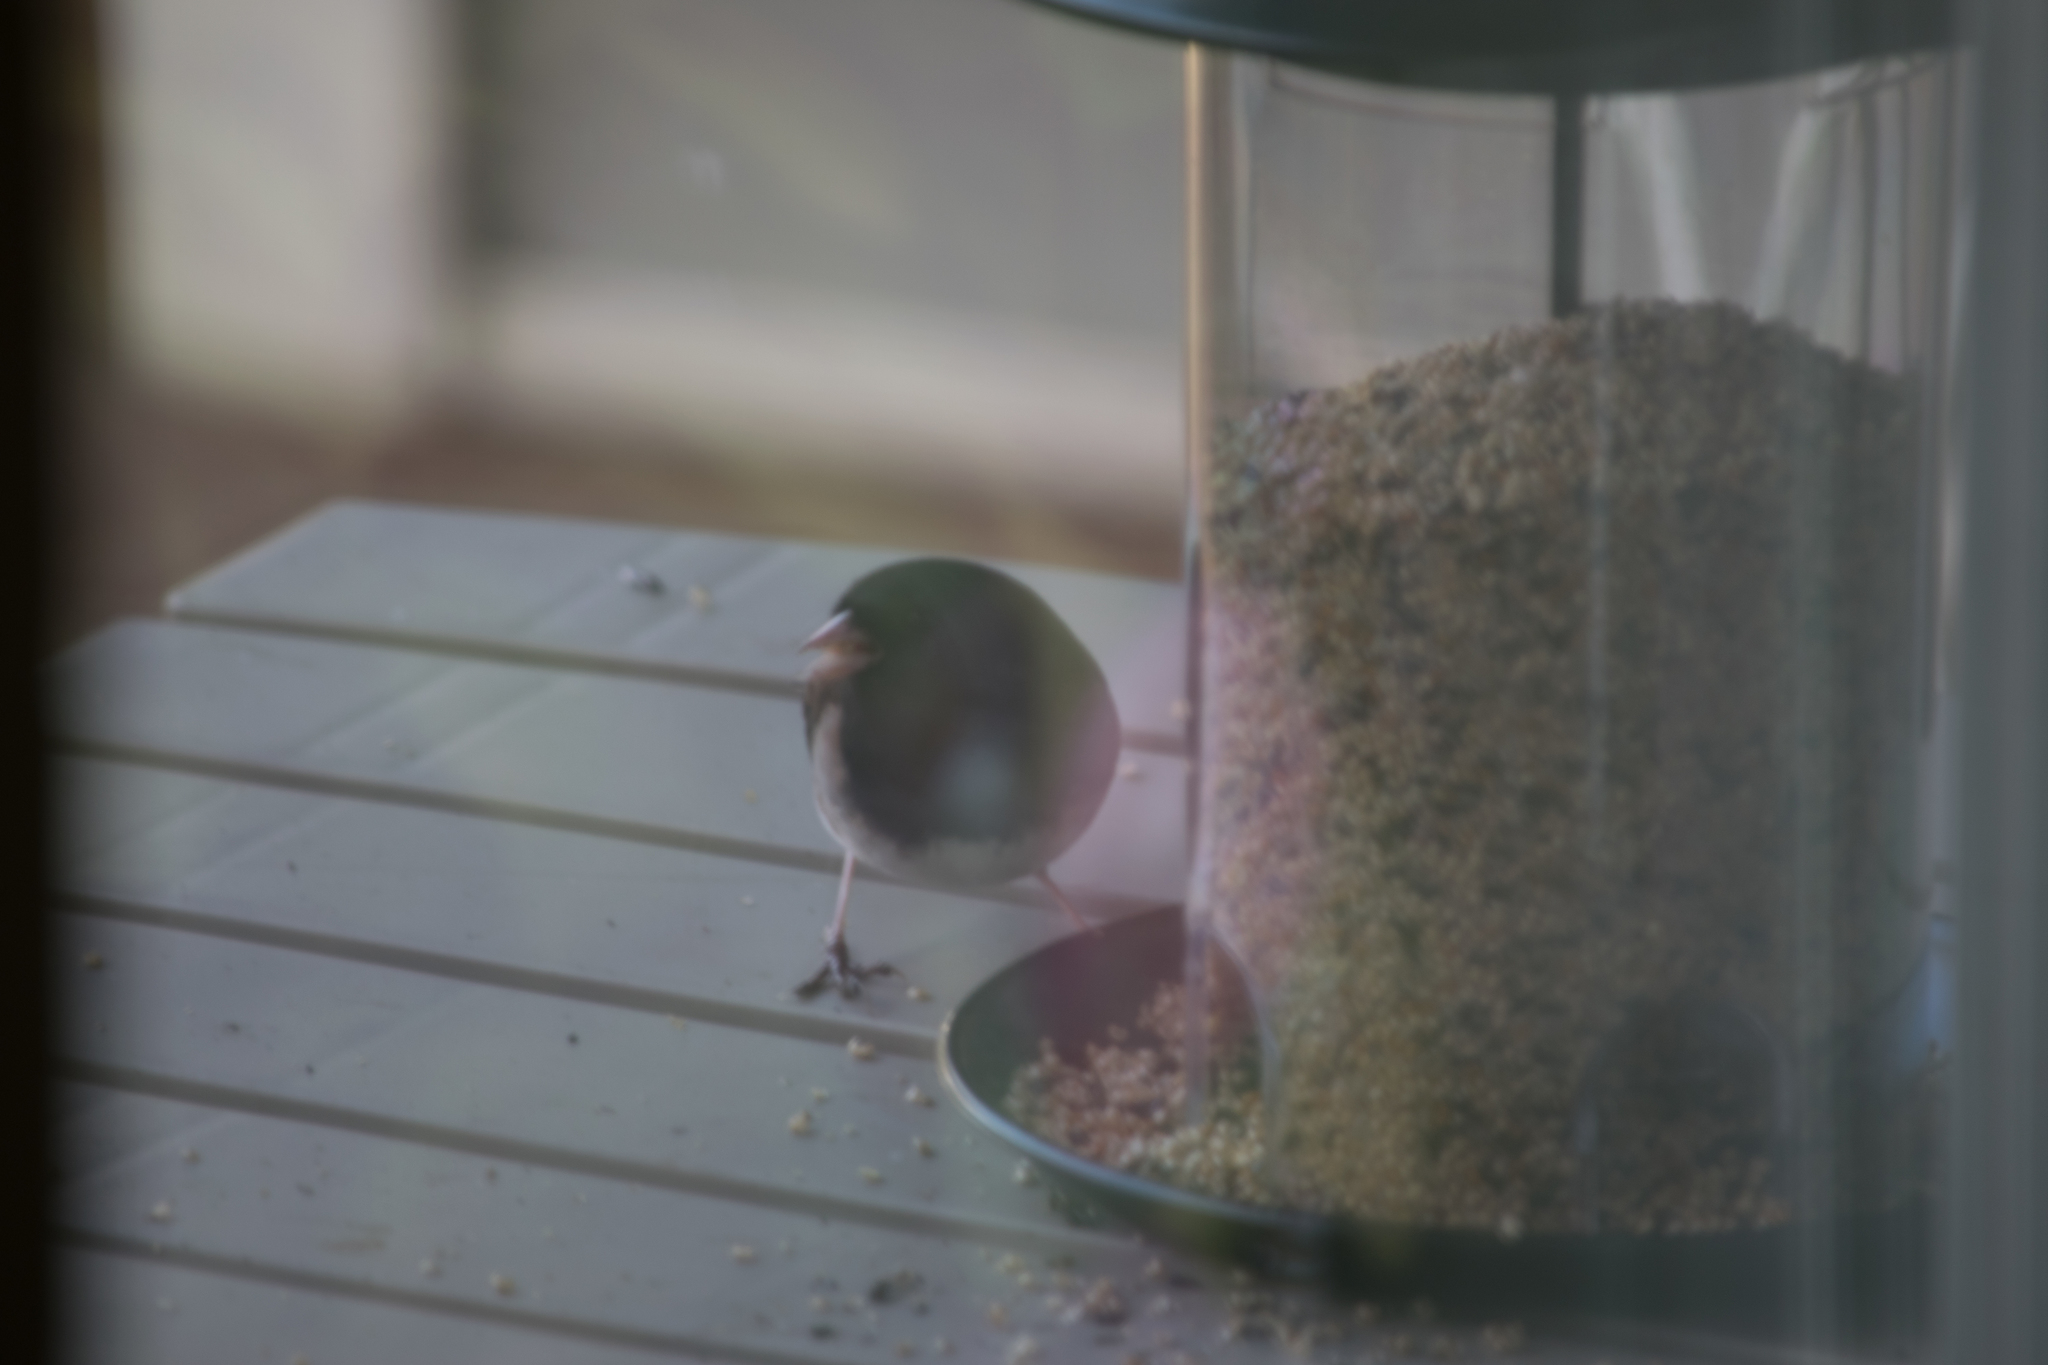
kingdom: Animalia
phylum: Chordata
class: Aves
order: Passeriformes
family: Passerellidae
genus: Junco
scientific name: Junco hyemalis
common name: Dark-eyed junco
